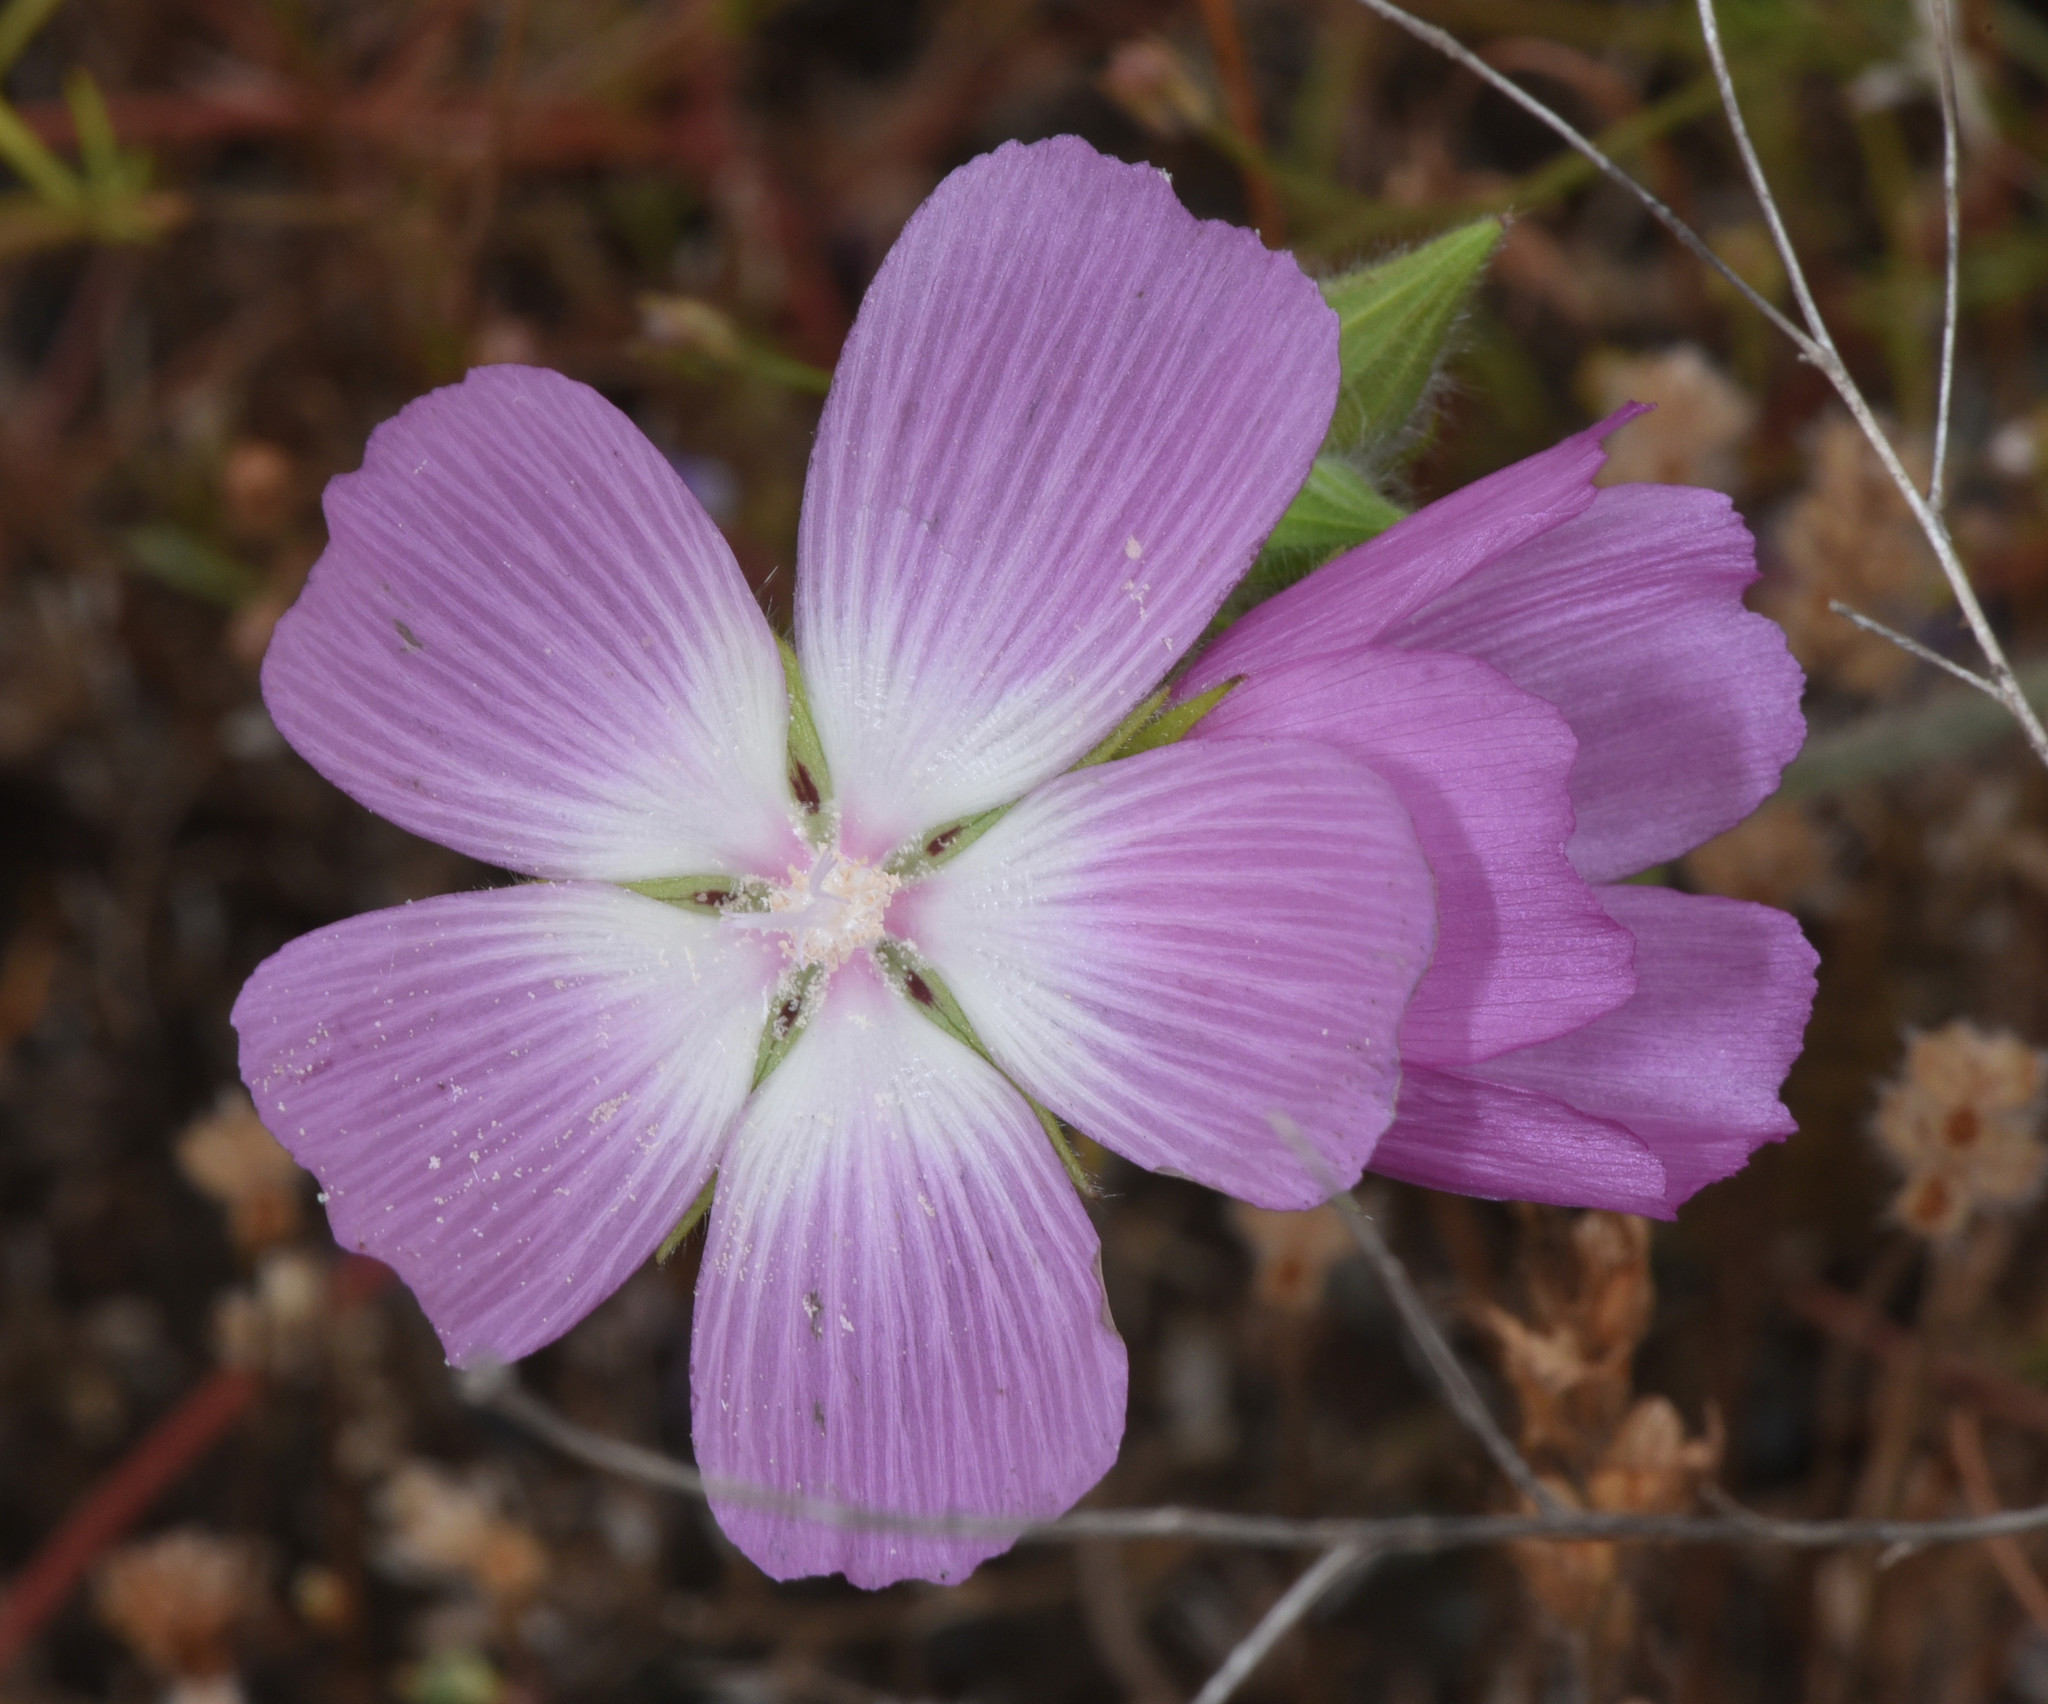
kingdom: Plantae
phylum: Tracheophyta
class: Magnoliopsida
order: Malvales
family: Malvaceae
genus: Sidalcea
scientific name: Sidalcea diploscypha
